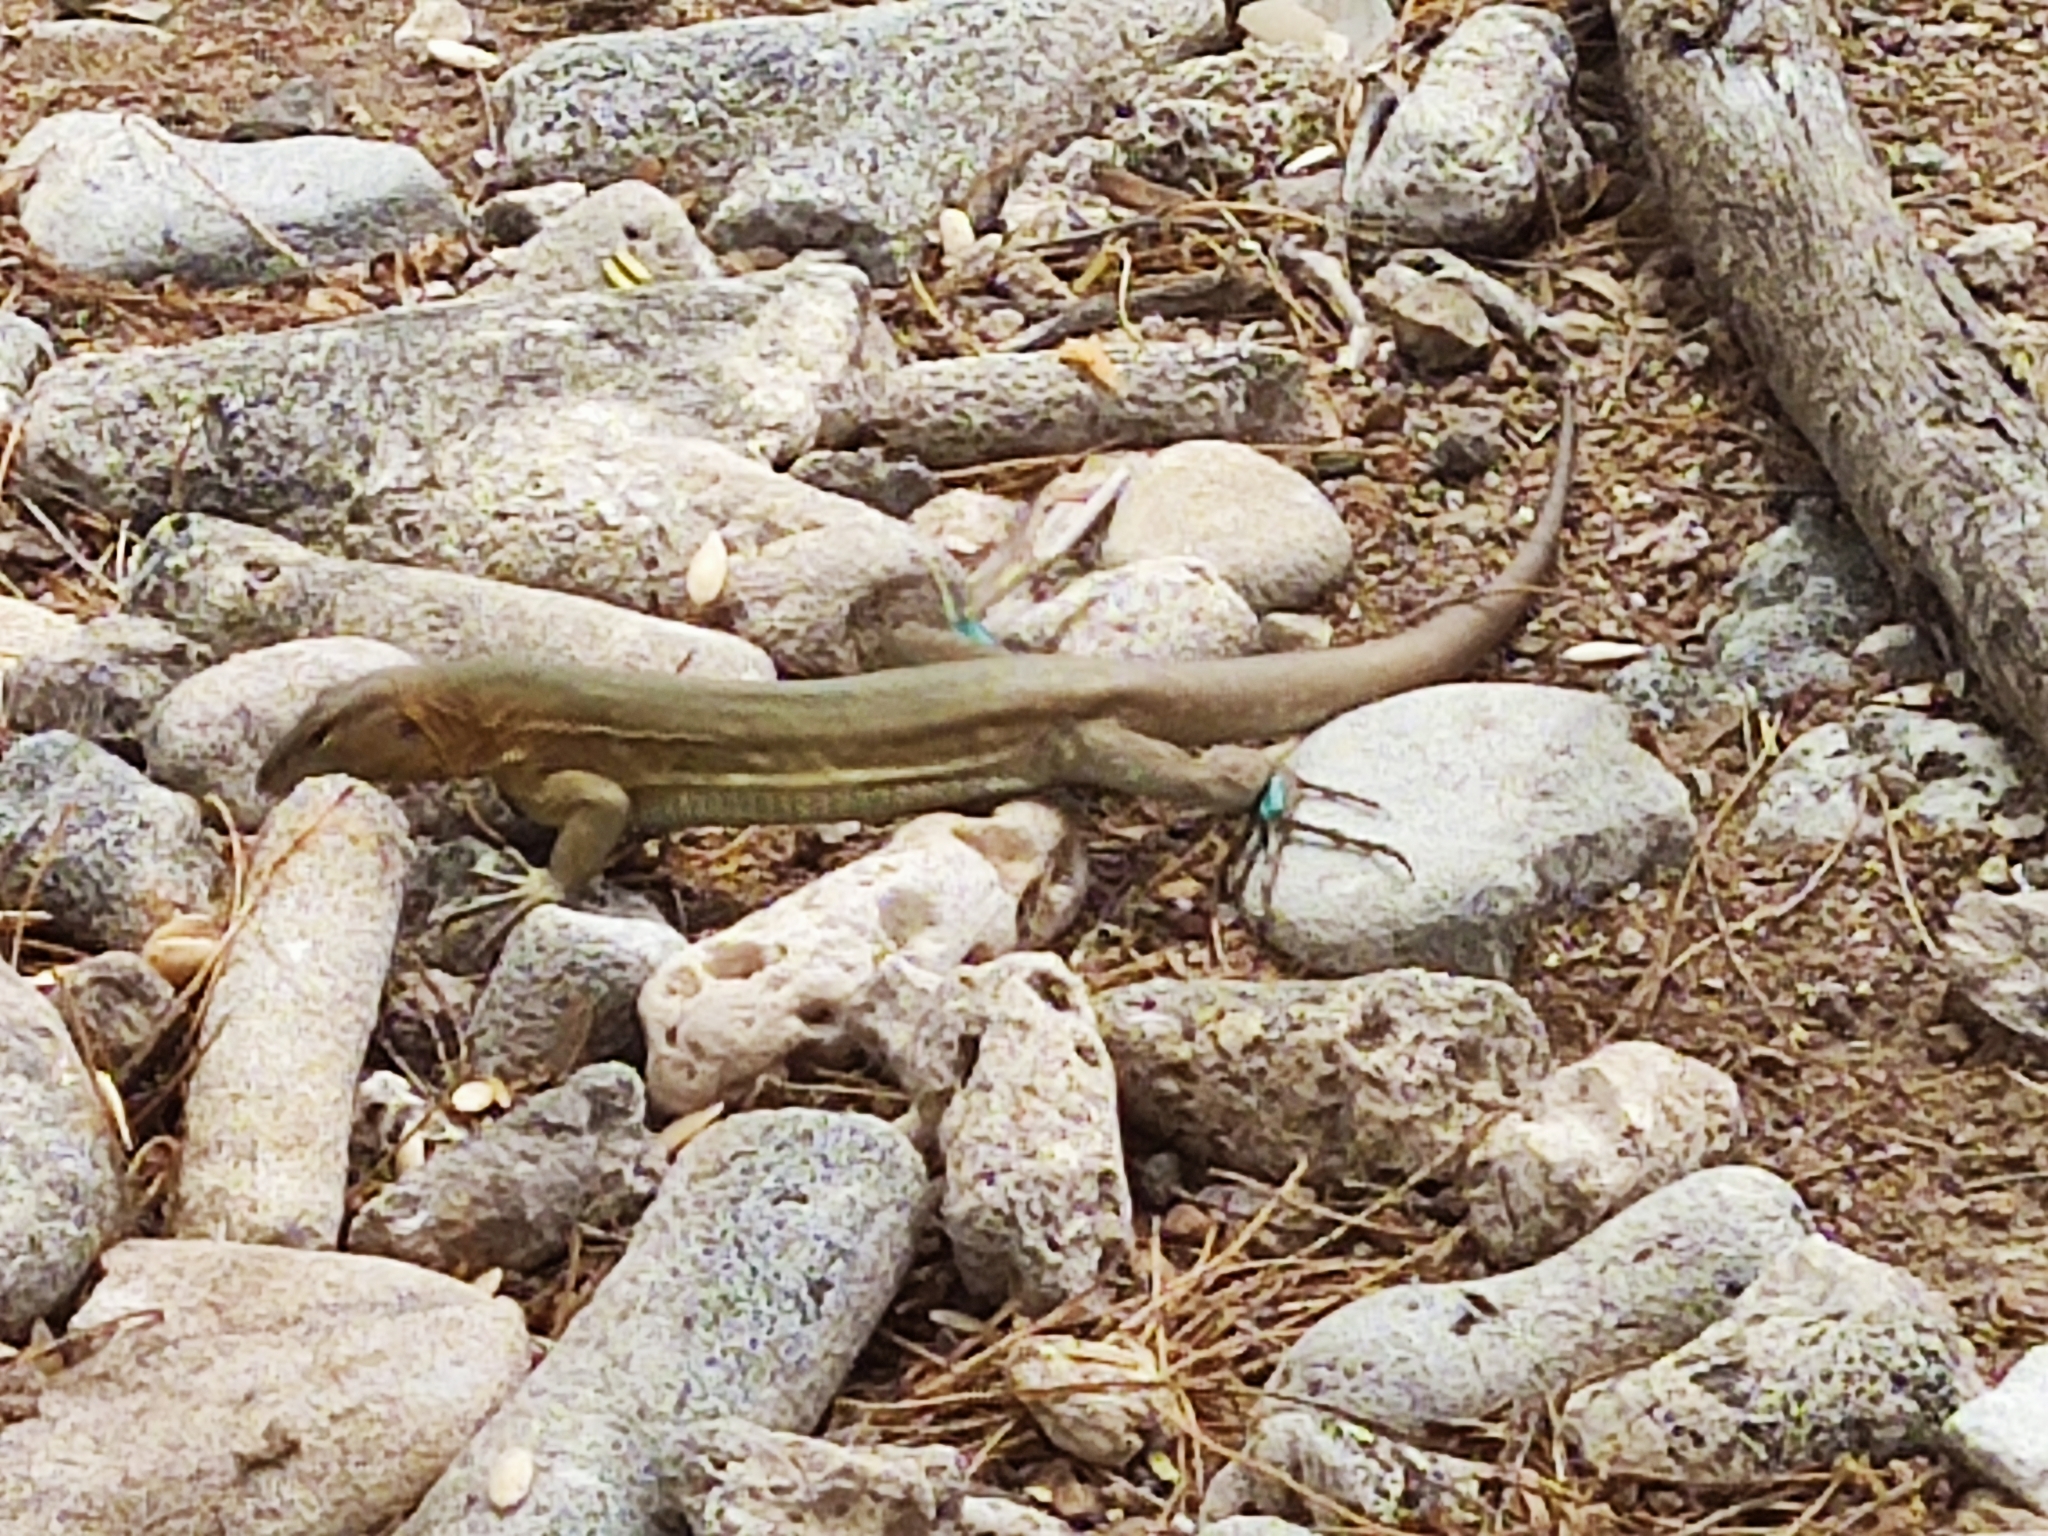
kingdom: Animalia
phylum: Chordata
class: Squamata
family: Teiidae
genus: Cnemidophorus
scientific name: Cnemidophorus ruthveni
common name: Bonaire whiptail
